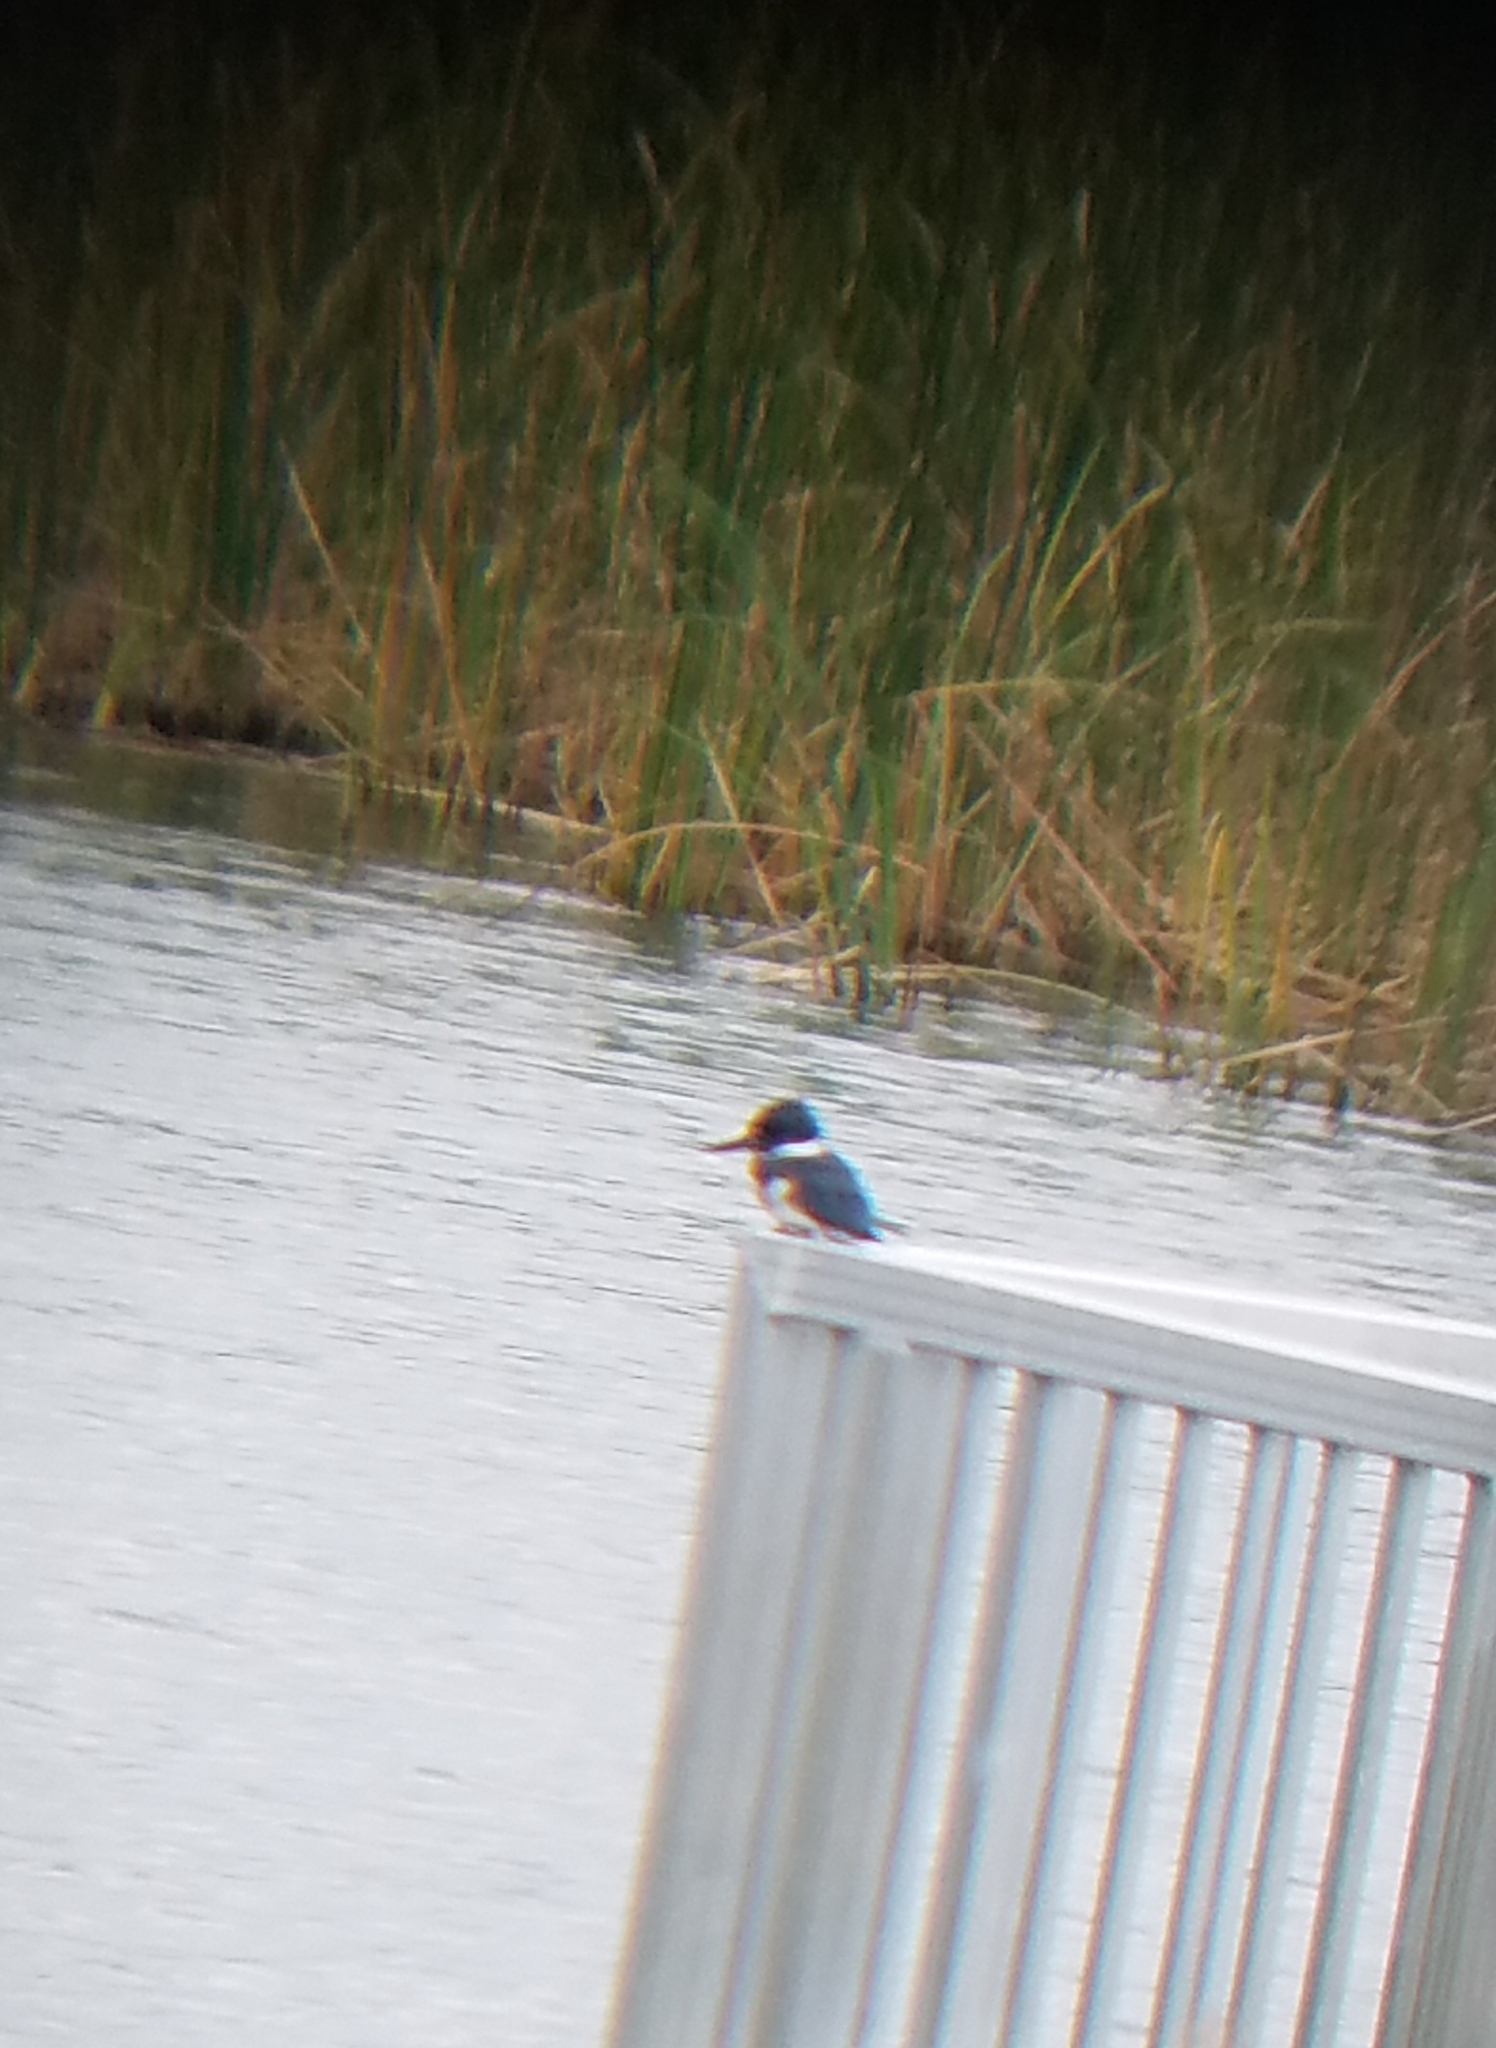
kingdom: Animalia
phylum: Chordata
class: Aves
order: Coraciiformes
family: Alcedinidae
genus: Megaceryle
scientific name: Megaceryle alcyon
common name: Belted kingfisher
